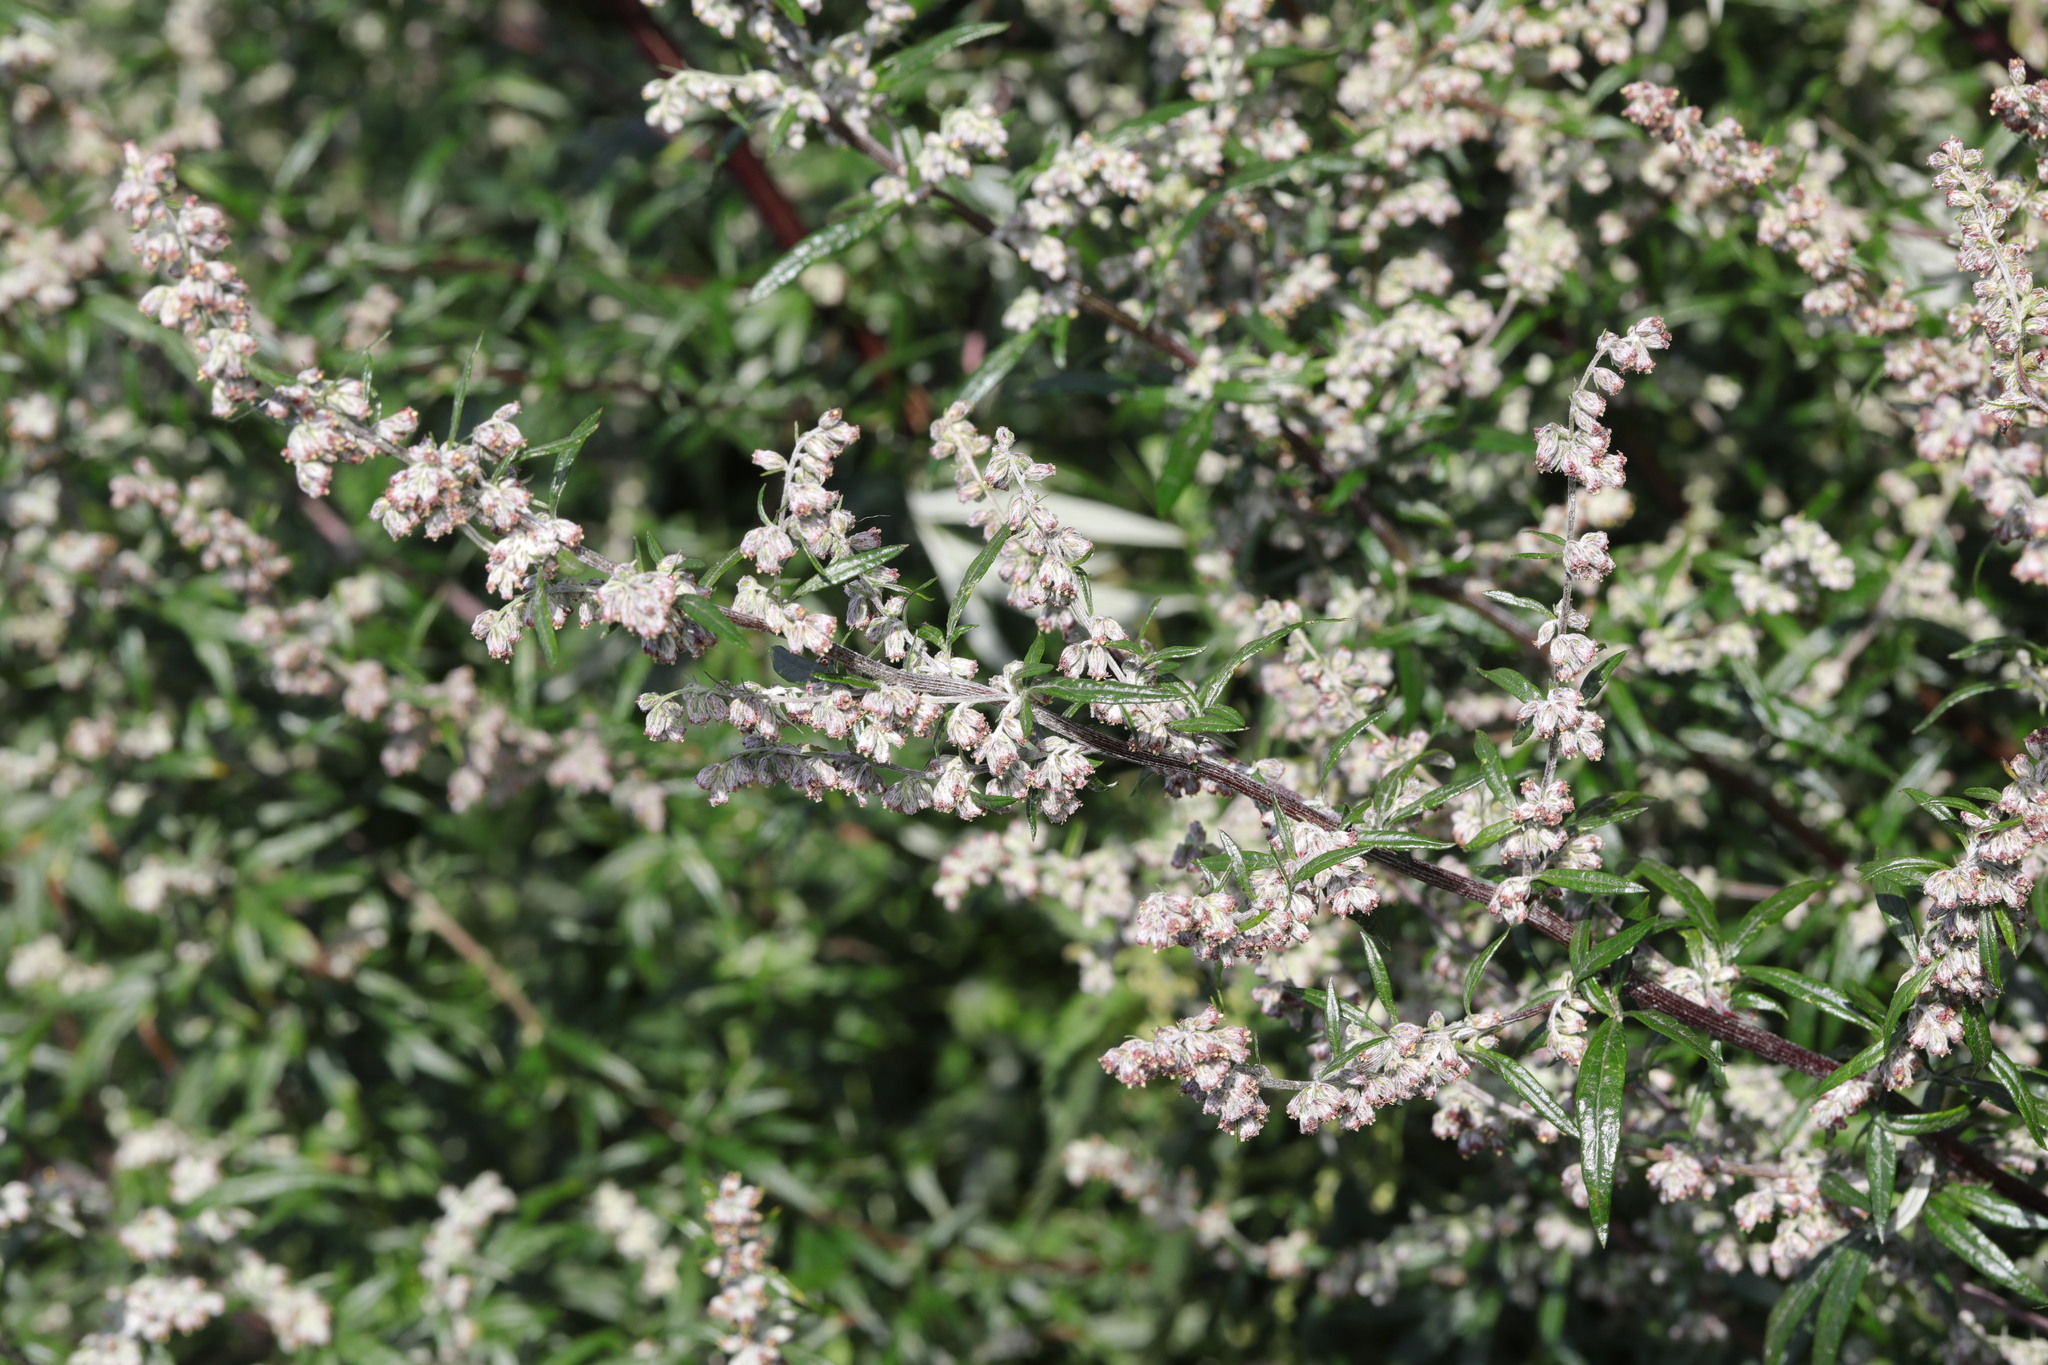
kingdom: Plantae
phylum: Tracheophyta
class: Magnoliopsida
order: Asterales
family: Asteraceae
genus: Artemisia
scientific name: Artemisia vulgaris
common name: Mugwort
